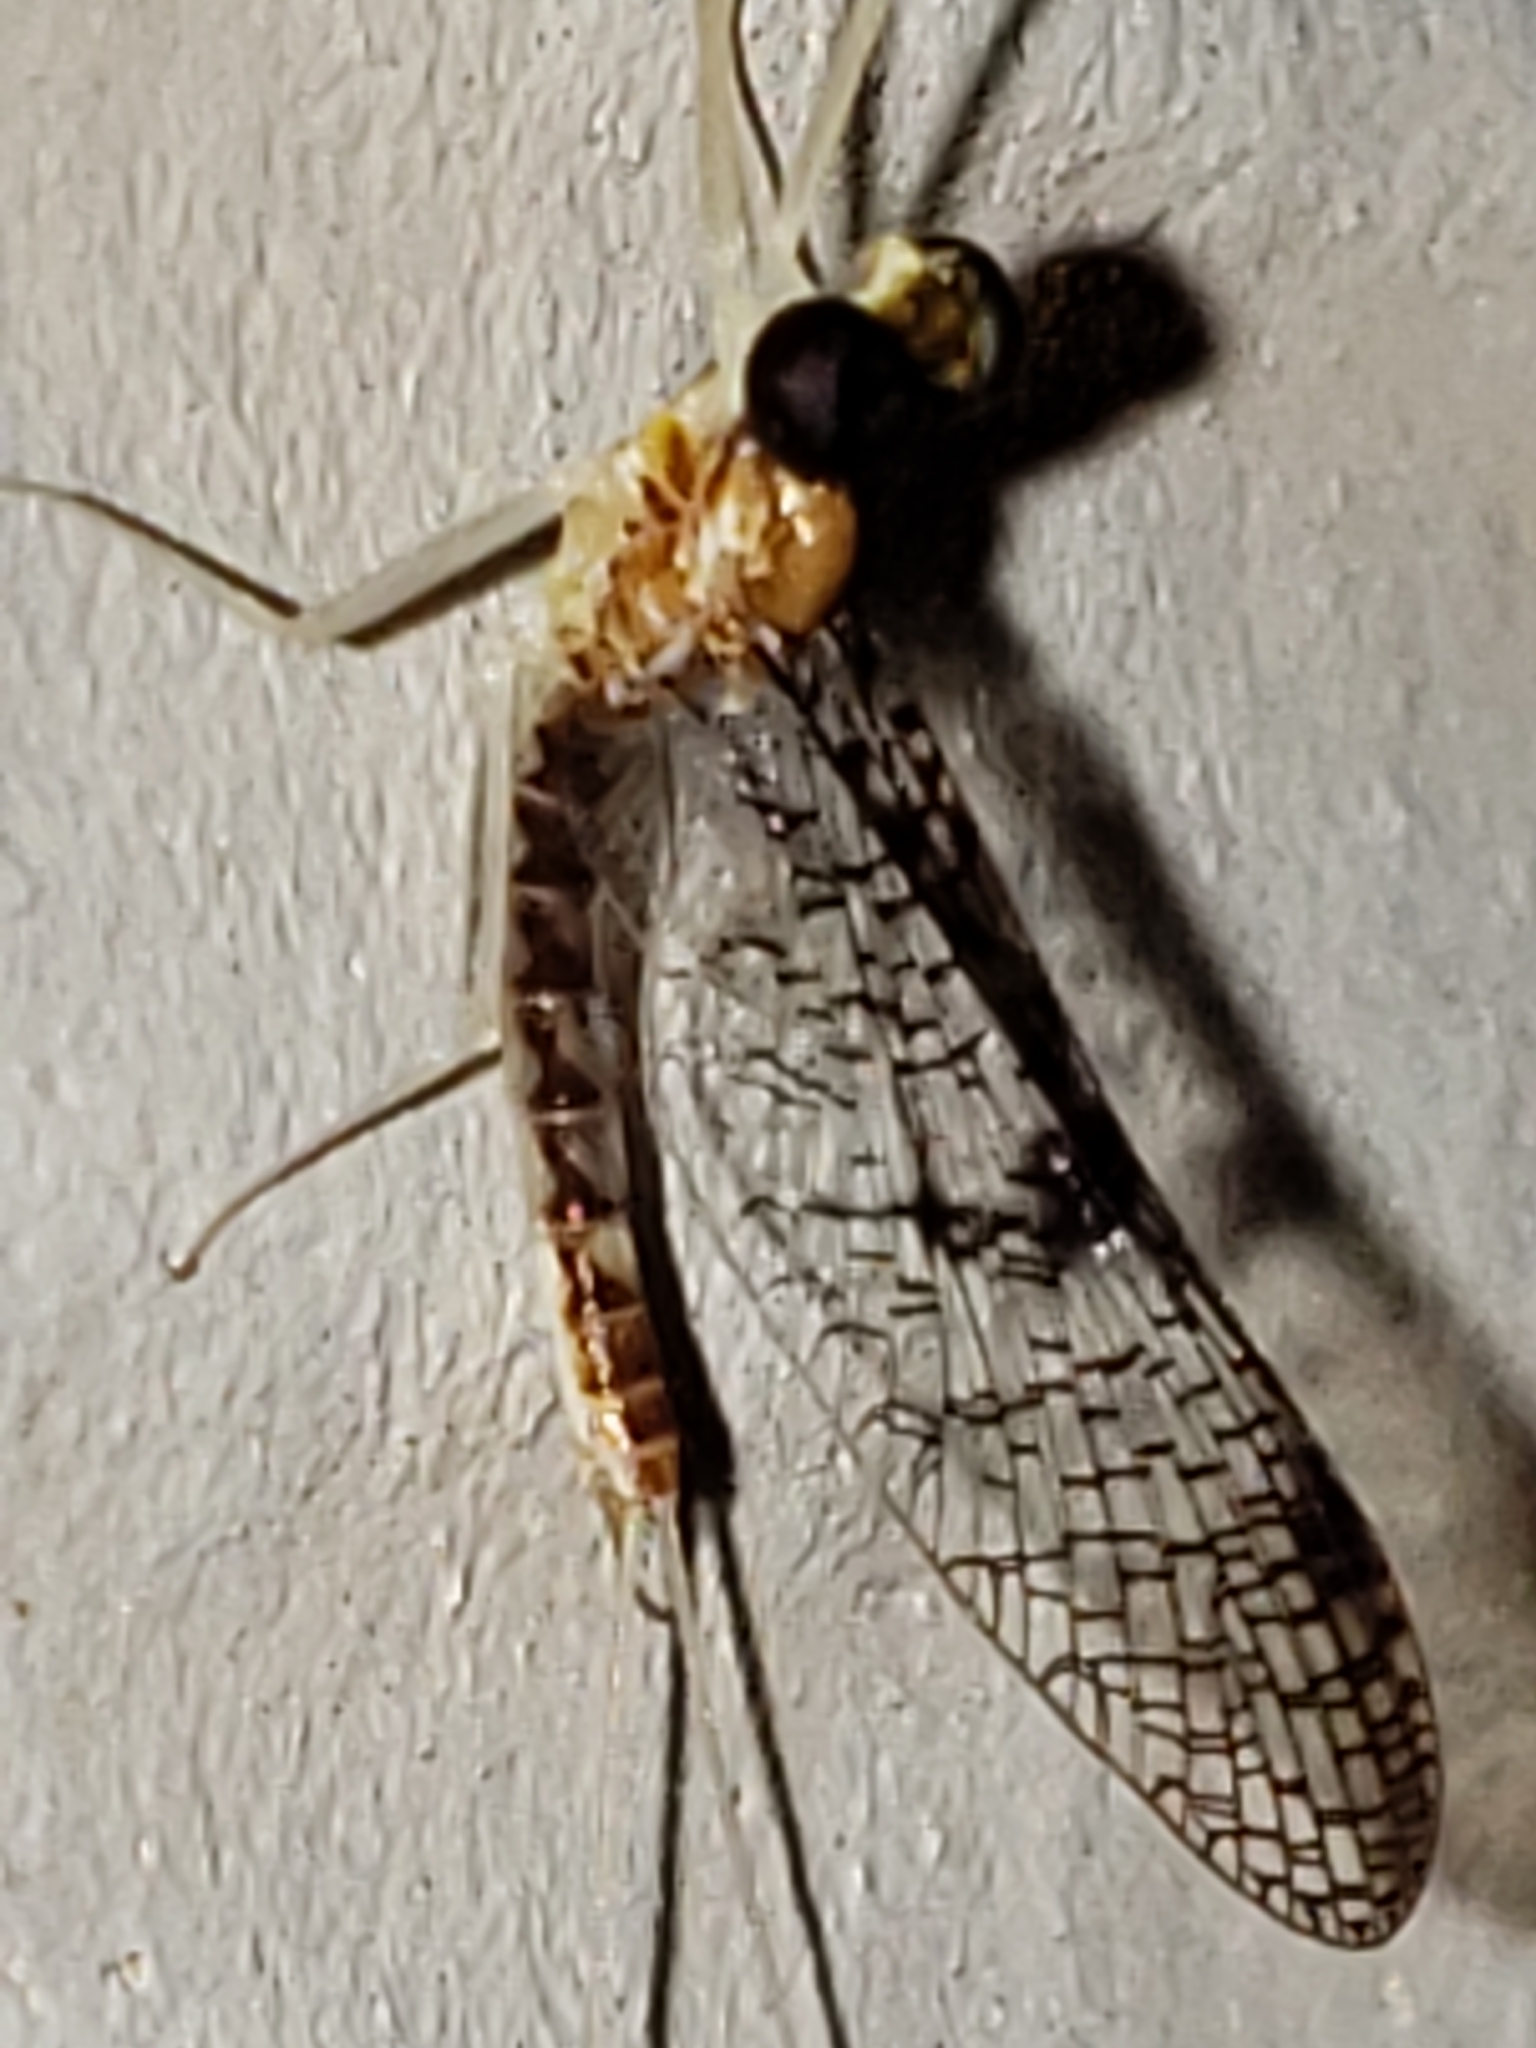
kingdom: Animalia
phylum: Arthropoda
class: Insecta
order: Ephemeroptera
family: Heptageniidae
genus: Leucrocuta
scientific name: Leucrocuta umbratica
